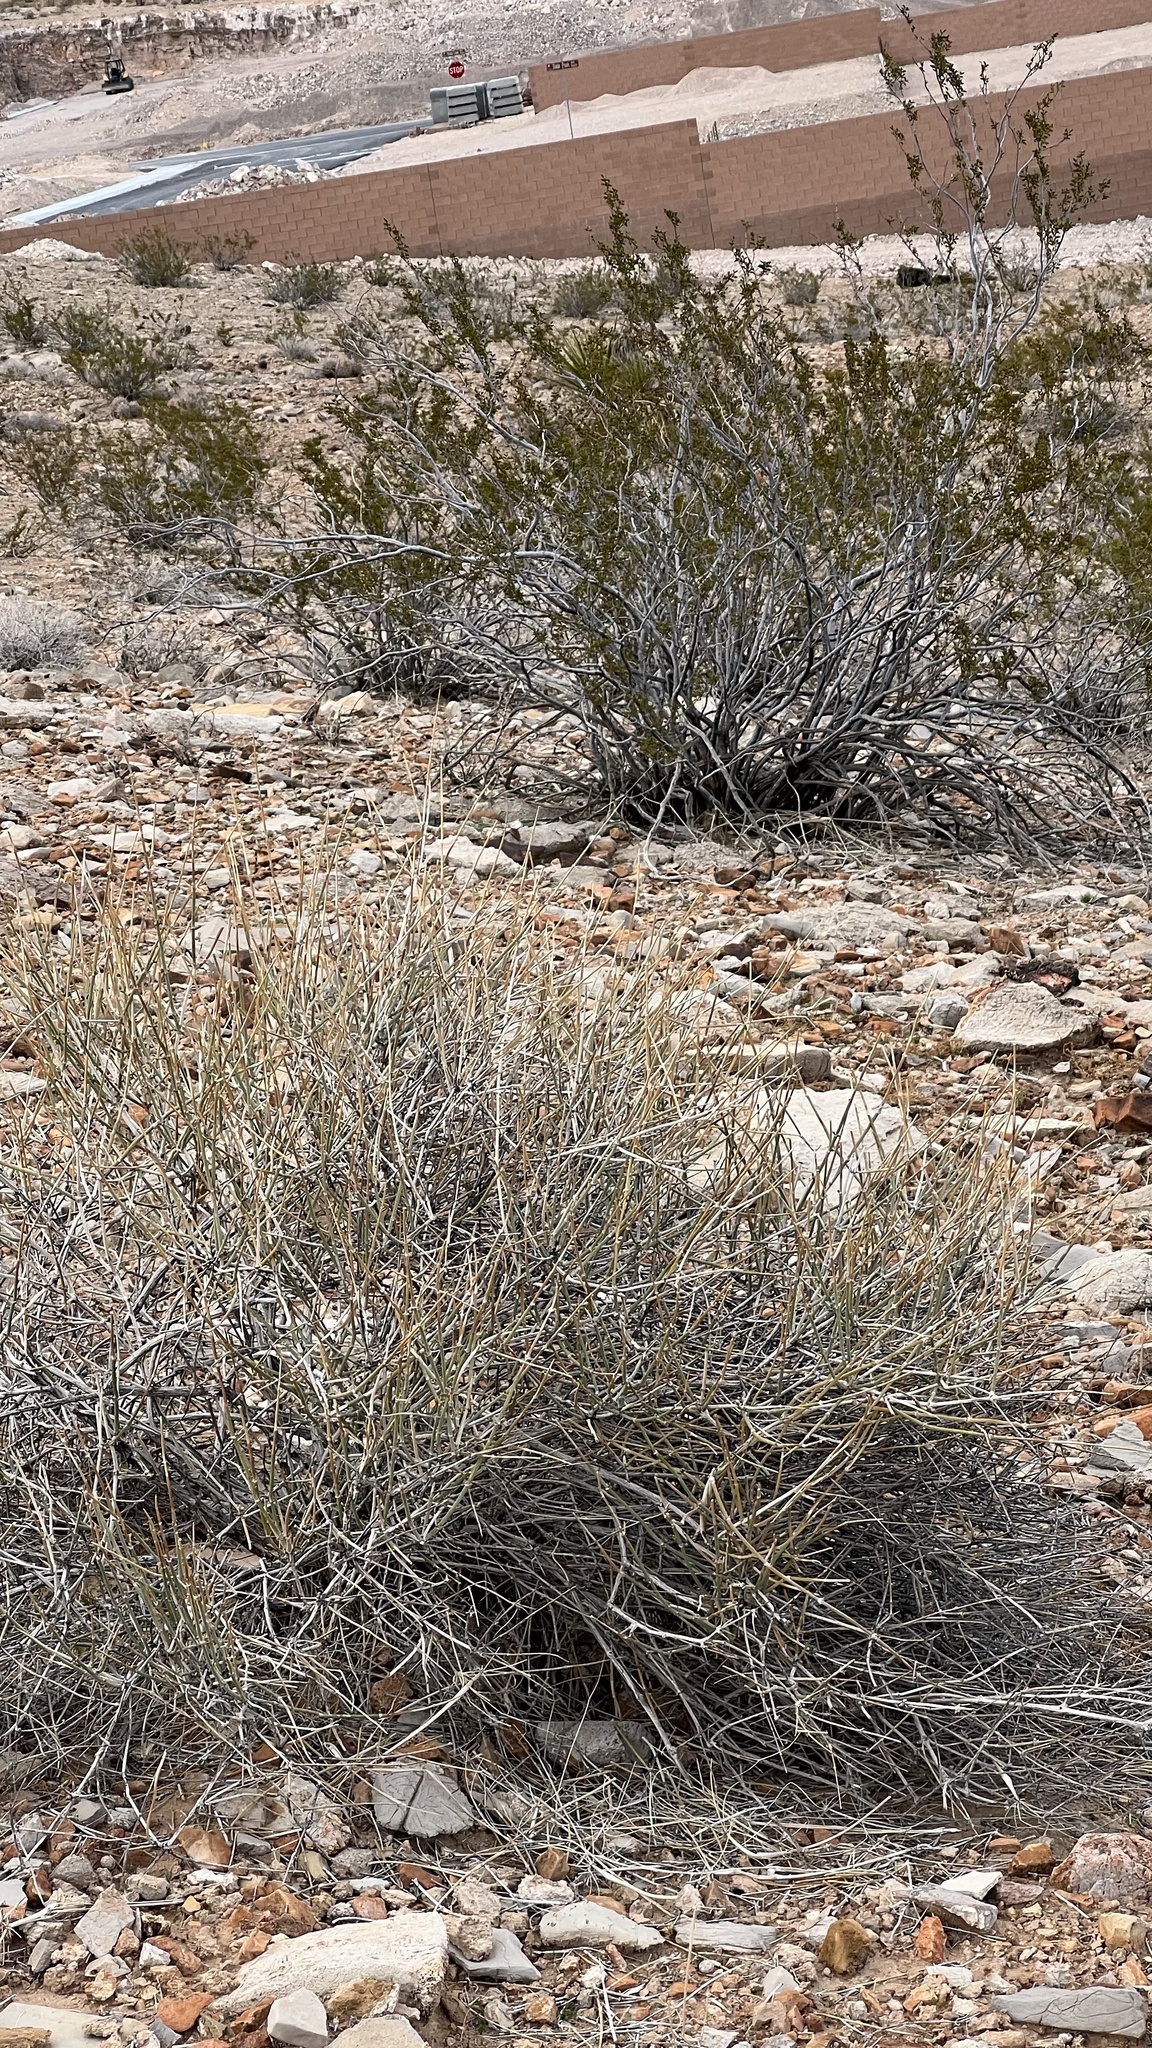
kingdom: Plantae
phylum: Tracheophyta
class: Gnetopsida
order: Ephedrales
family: Ephedraceae
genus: Ephedra
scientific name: Ephedra nevadensis
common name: Gray ephedra
